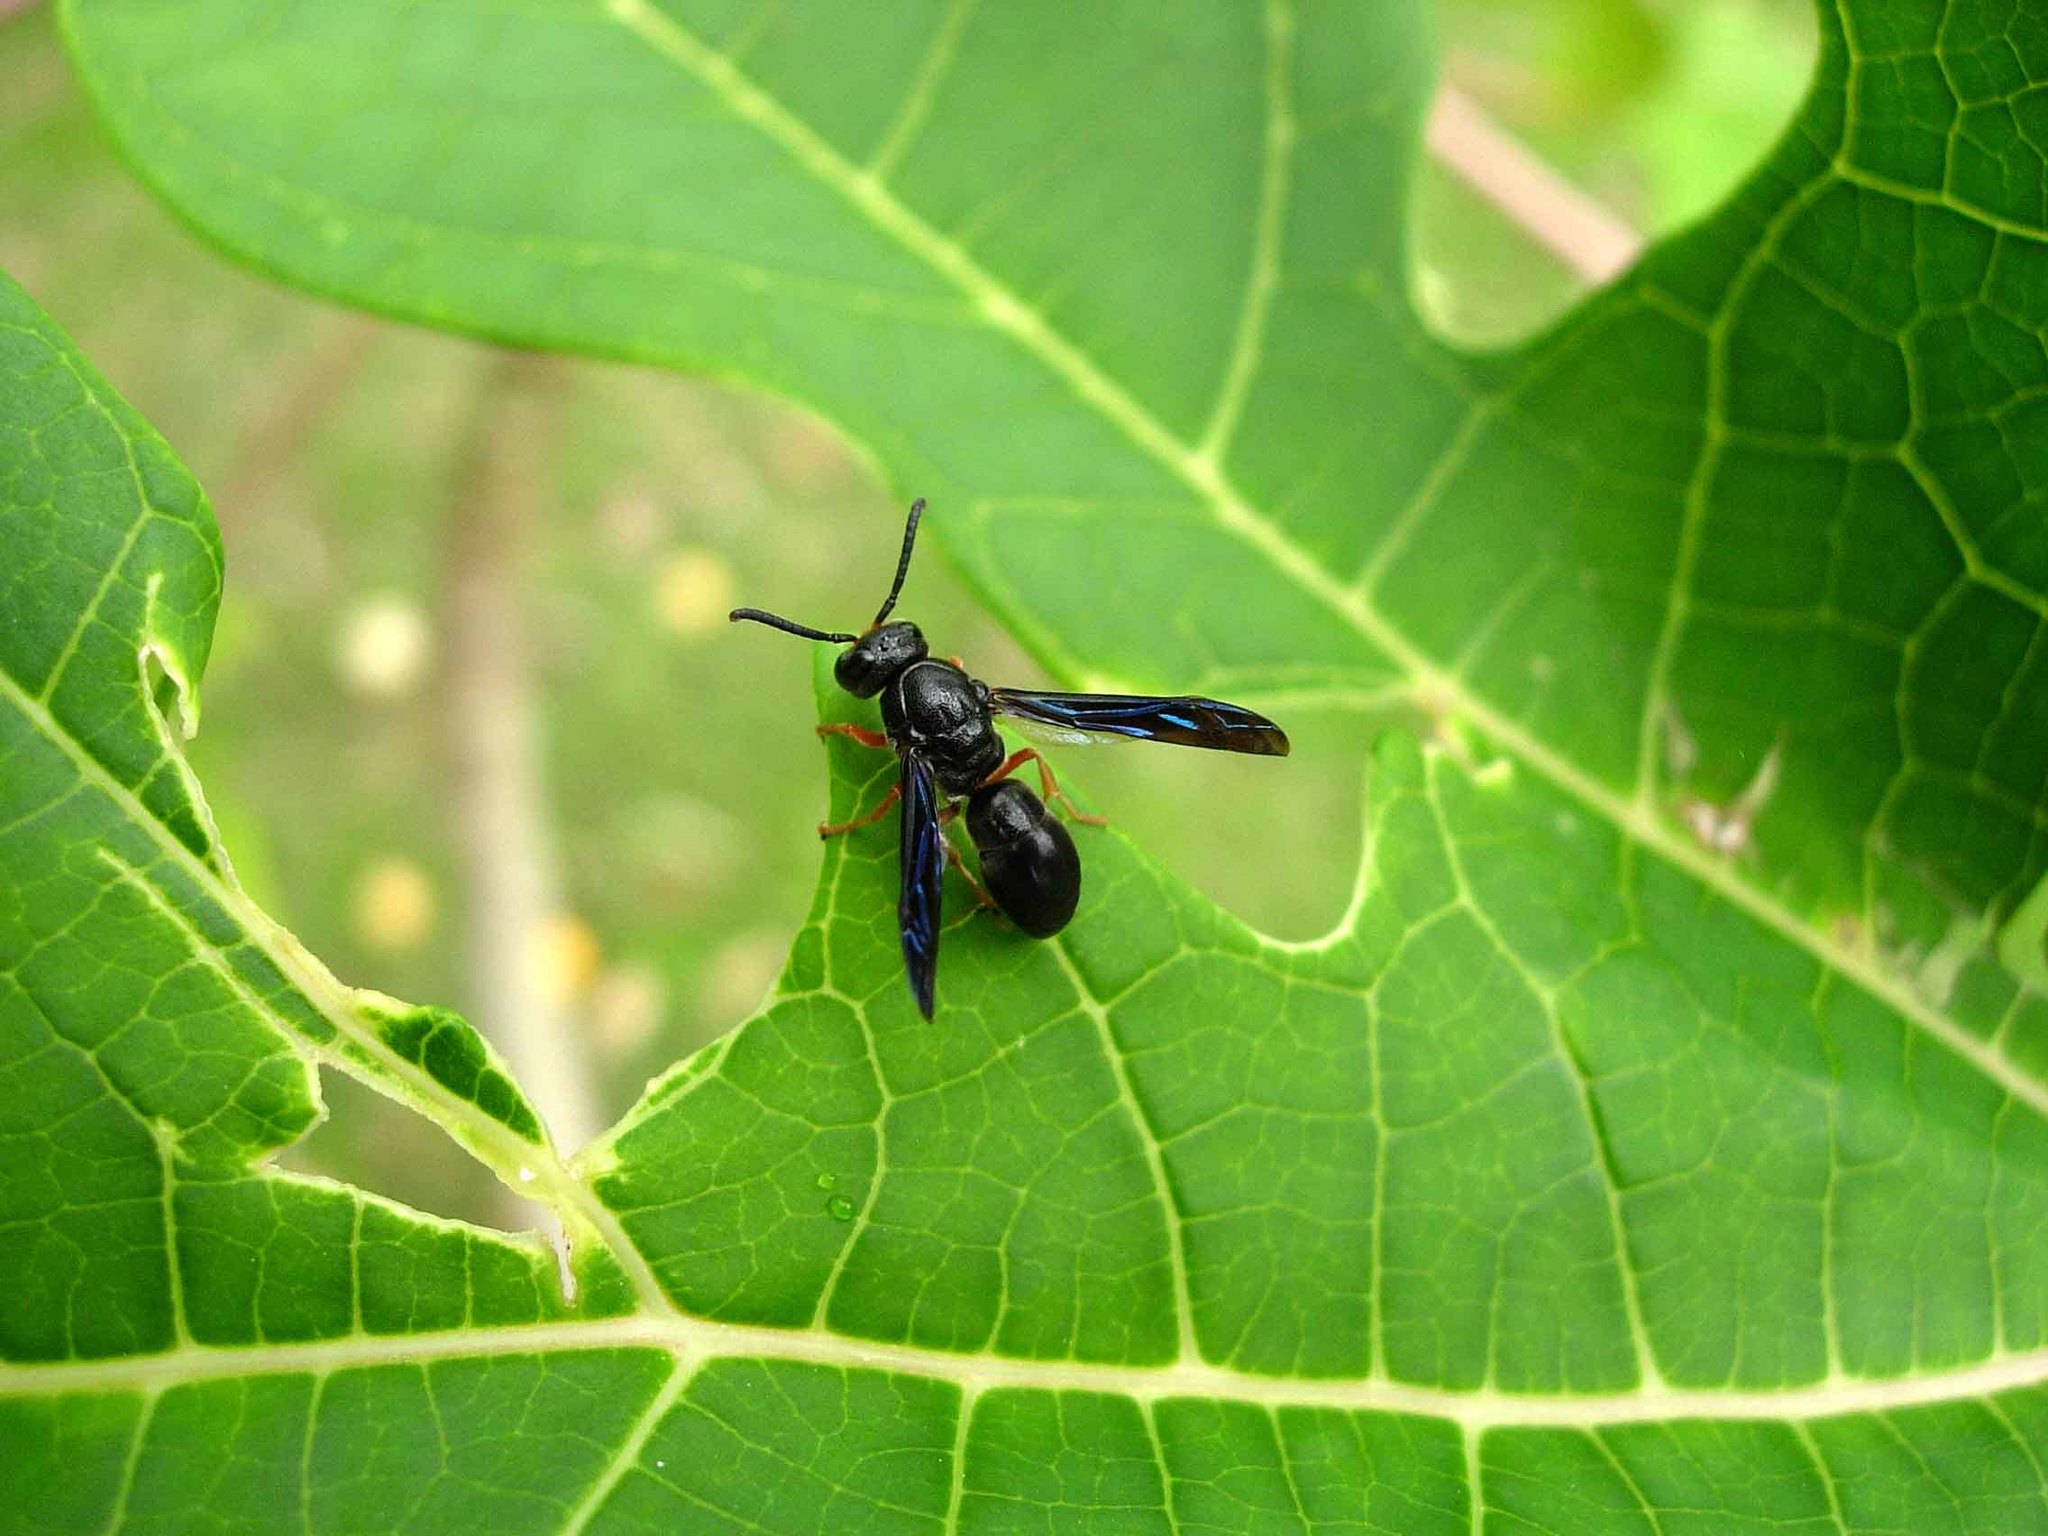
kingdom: Animalia
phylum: Arthropoda
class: Insecta
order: Hymenoptera
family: Eumenidae
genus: Anterhynchium
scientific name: Anterhynchium rufipes
